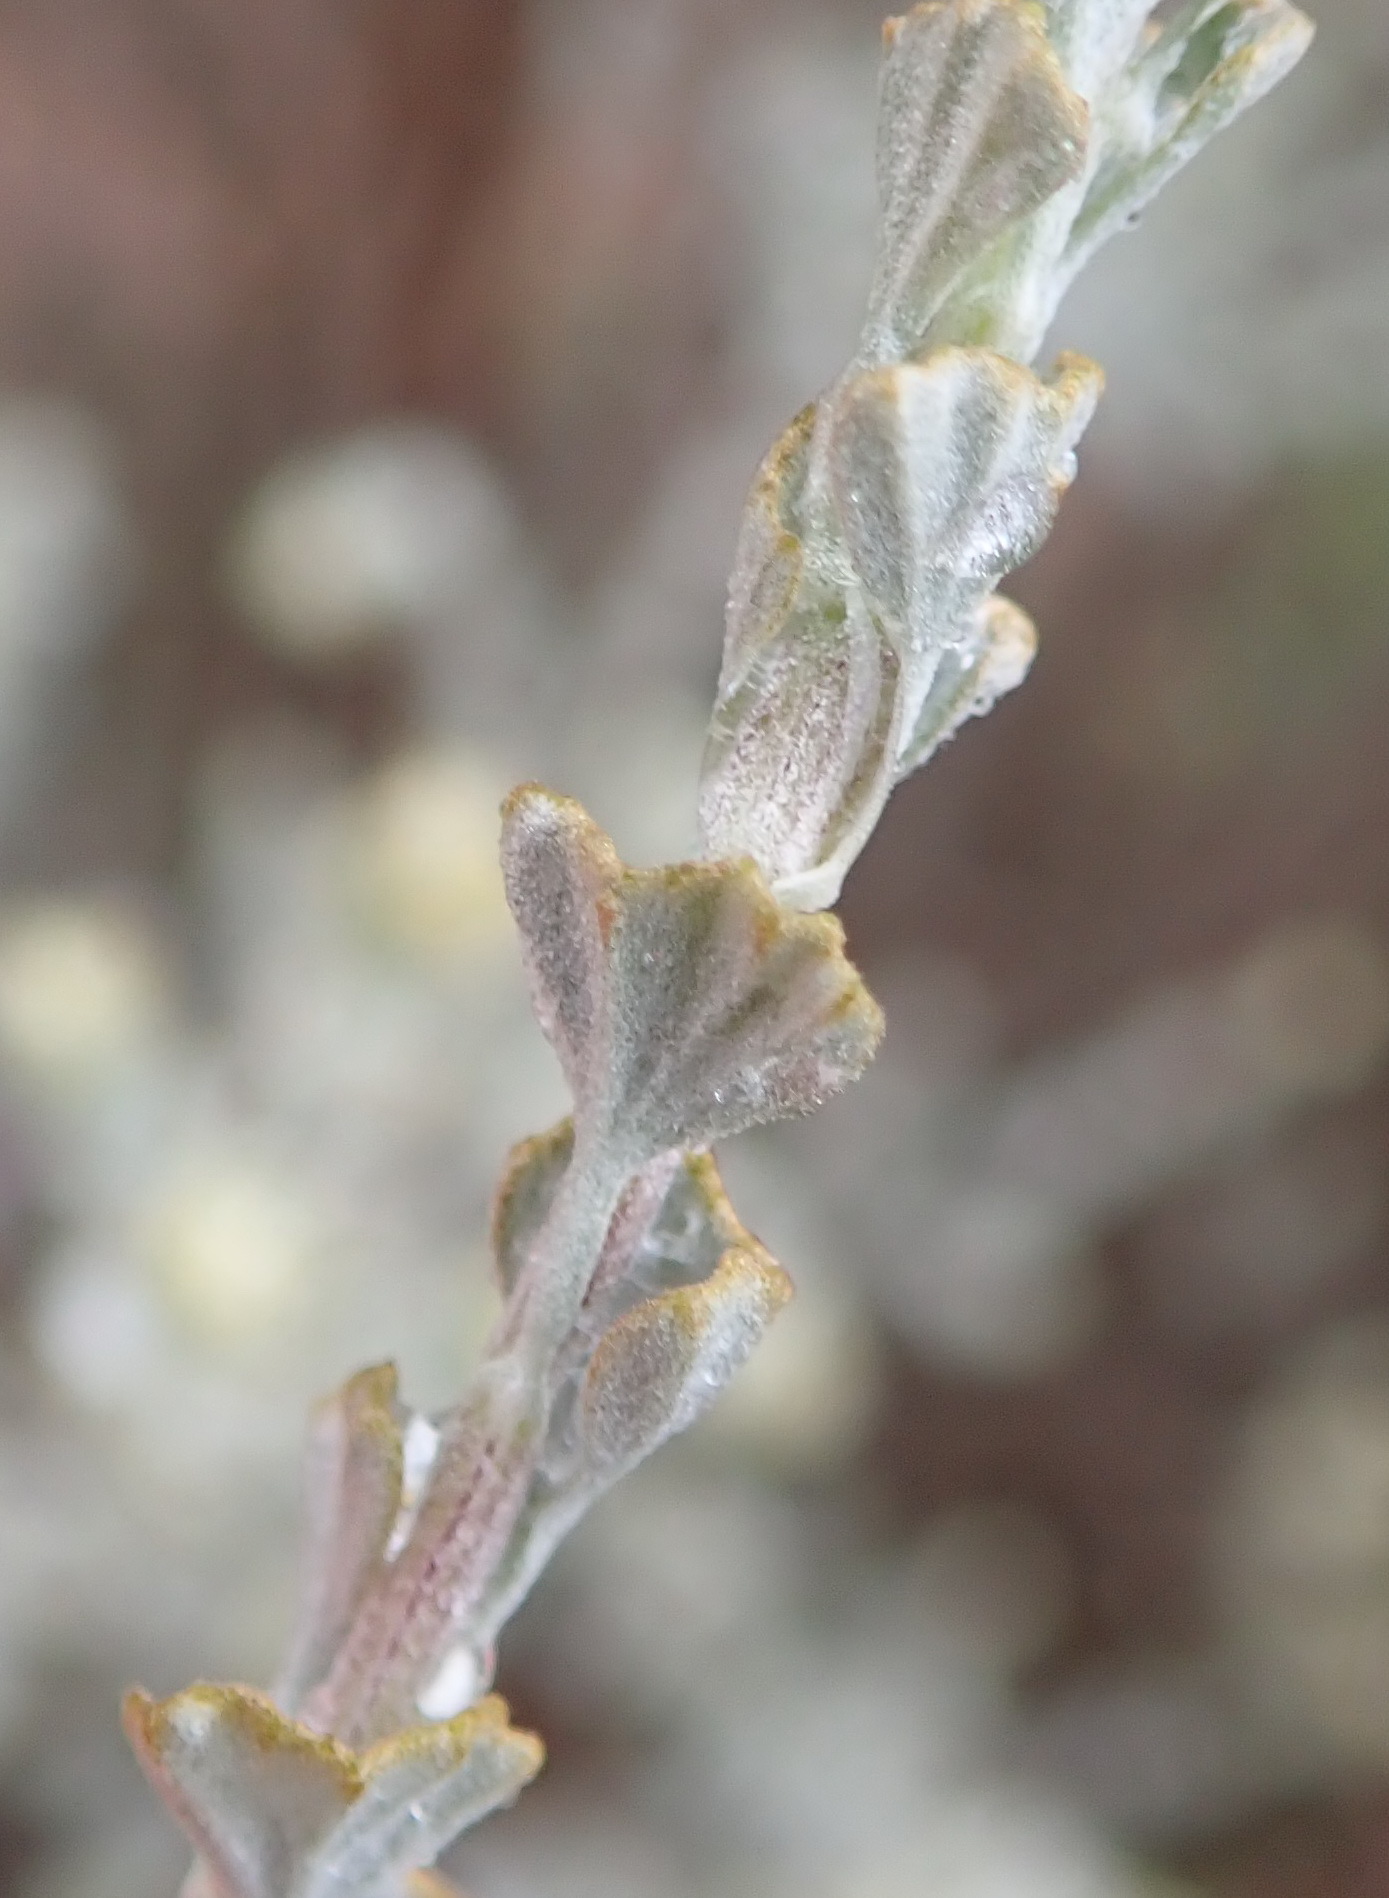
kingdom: Plantae
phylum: Tracheophyta
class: Magnoliopsida
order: Asterales
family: Asteraceae
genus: Pentzia
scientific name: Pentzia dentata
